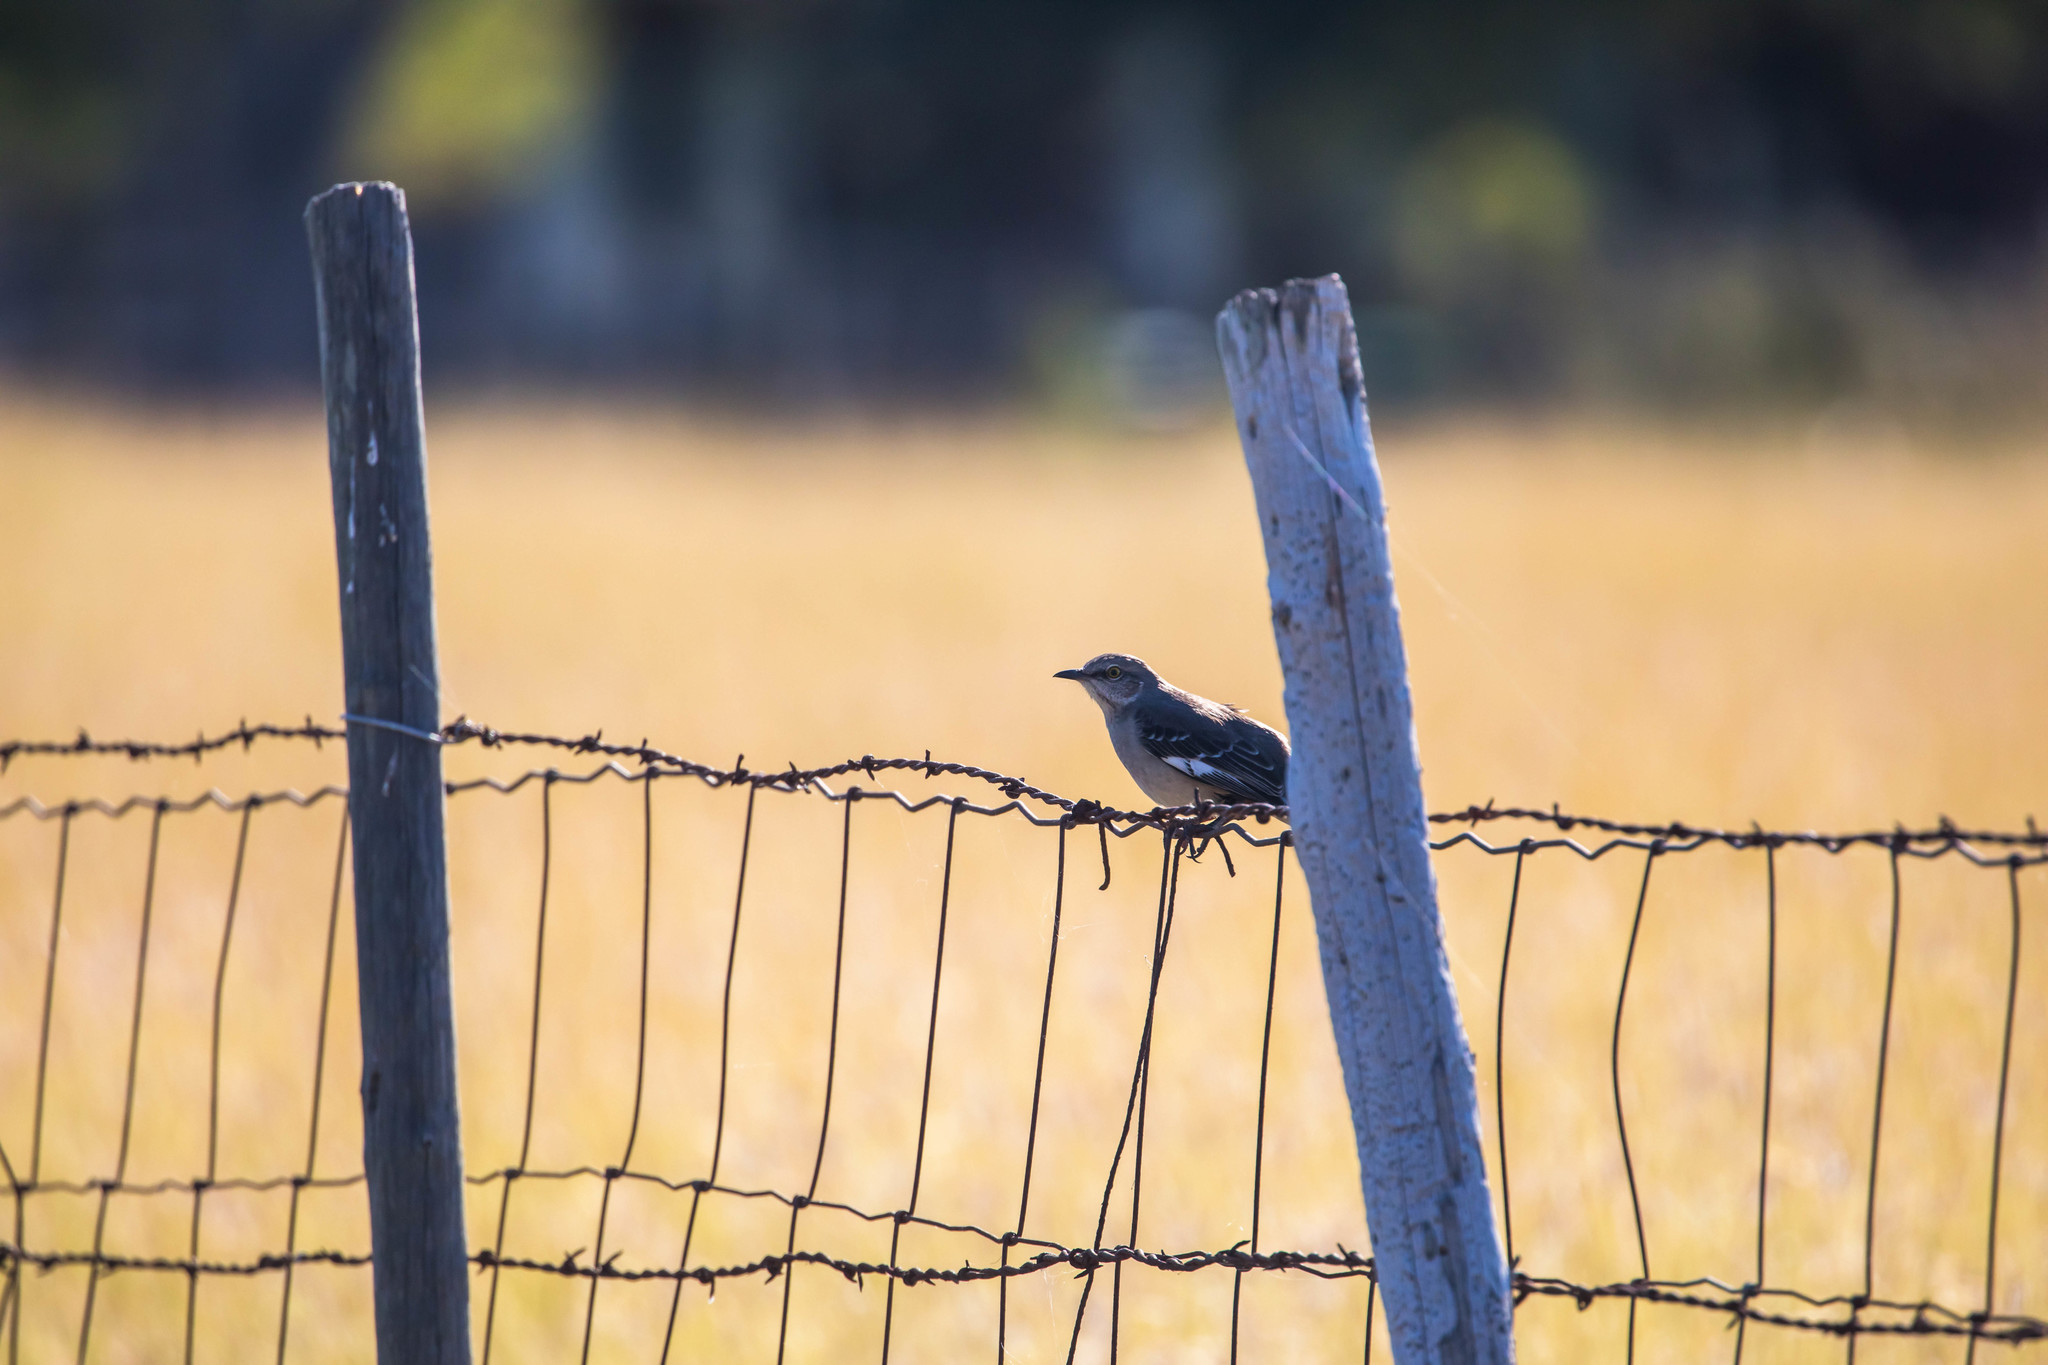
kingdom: Animalia
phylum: Chordata
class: Aves
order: Passeriformes
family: Mimidae
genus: Mimus
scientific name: Mimus polyglottos
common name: Northern mockingbird
